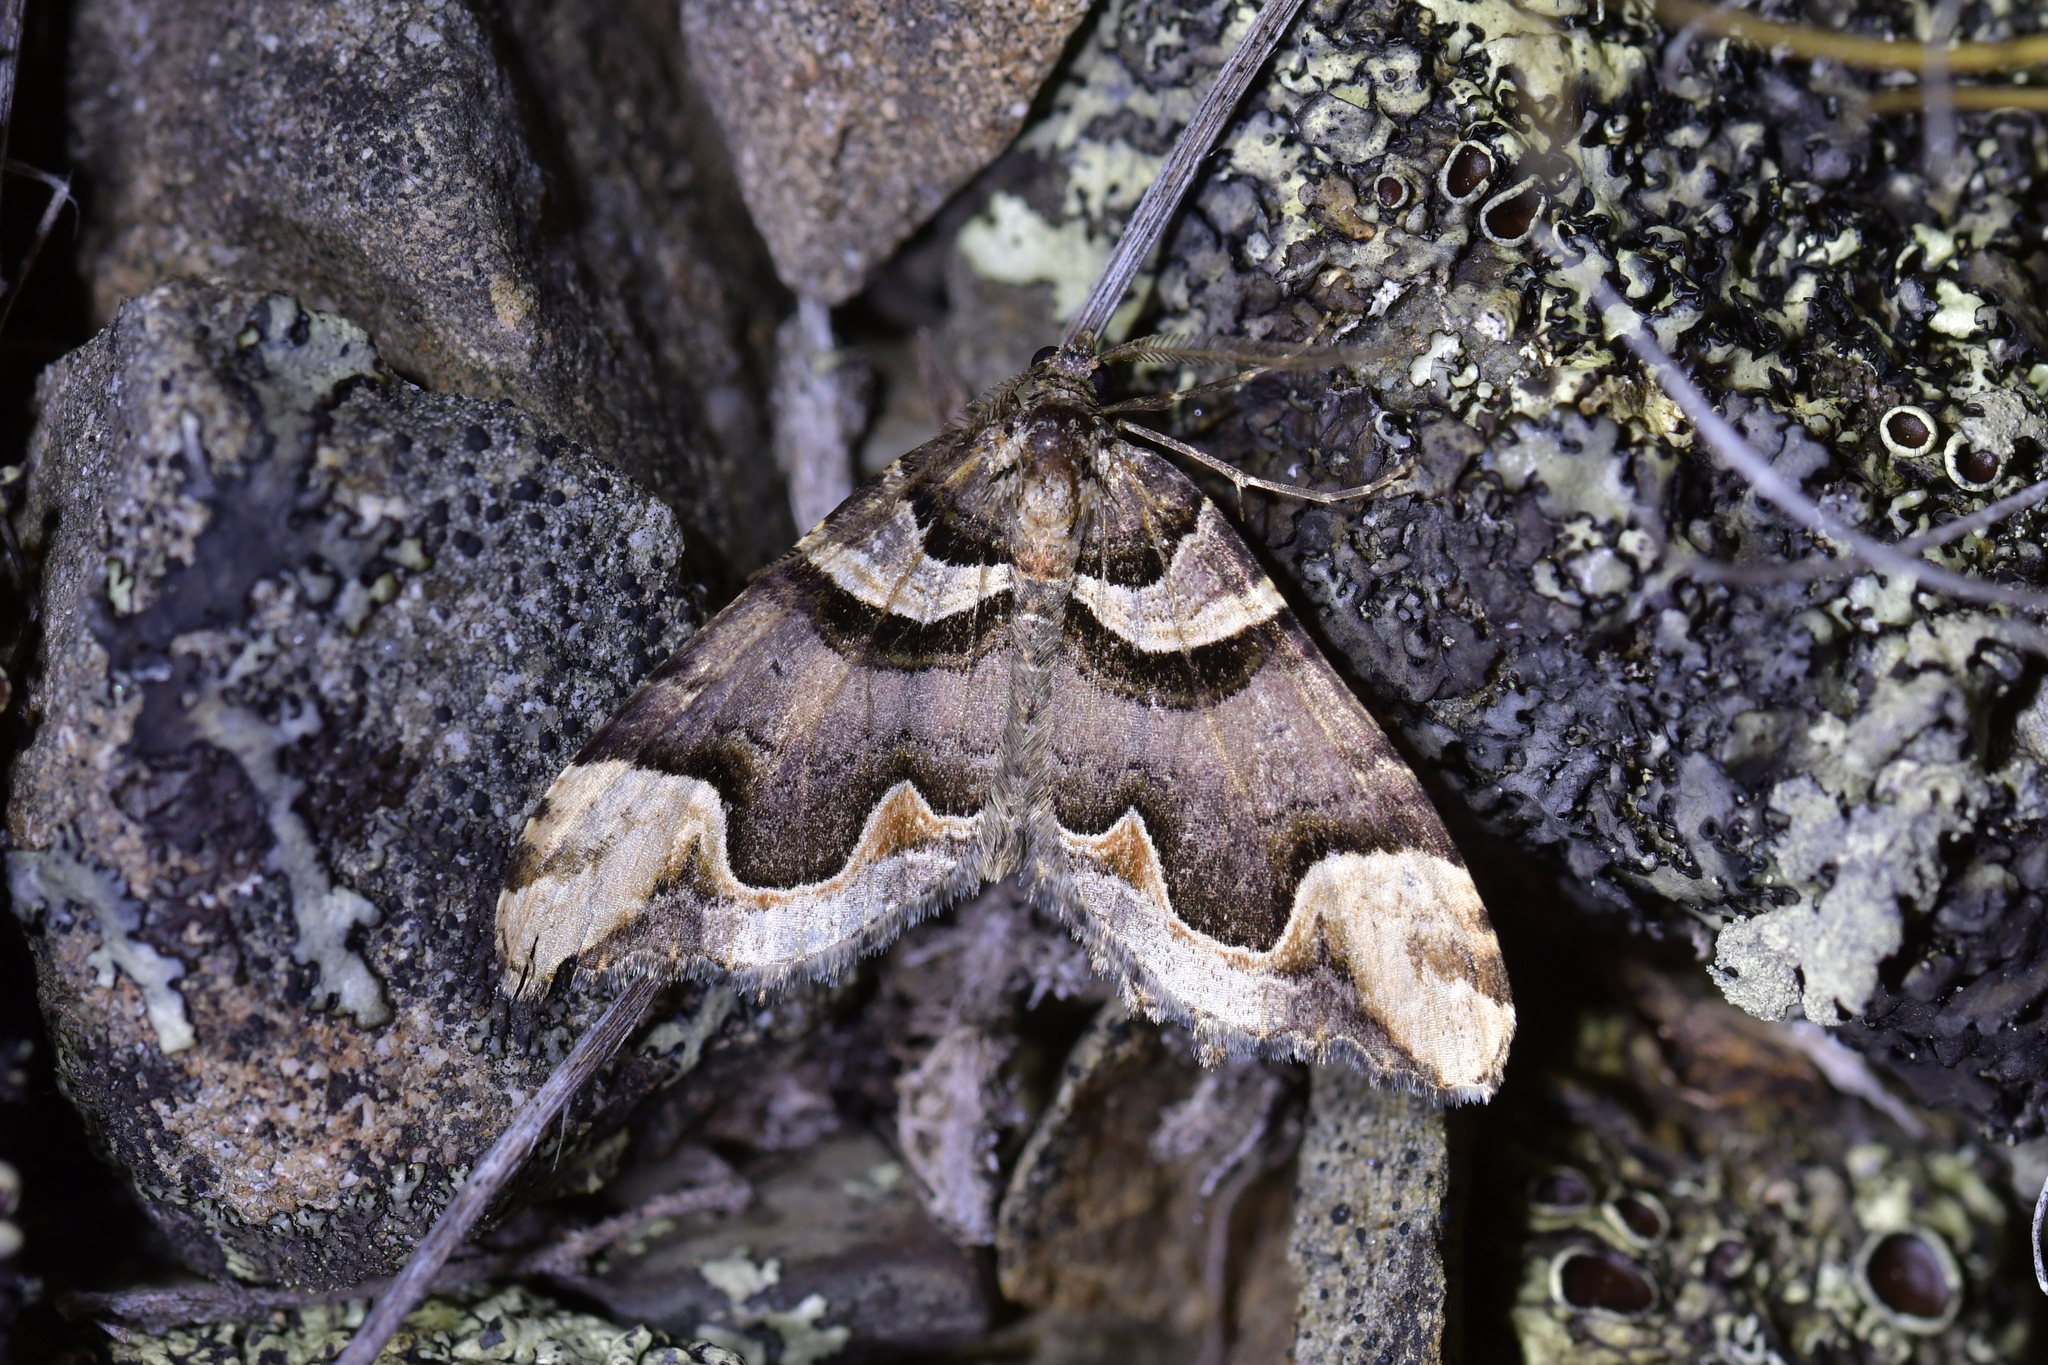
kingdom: Animalia
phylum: Arthropoda
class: Insecta
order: Lepidoptera
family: Geometridae
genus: Asaphodes
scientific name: Asaphodes chlamydota
